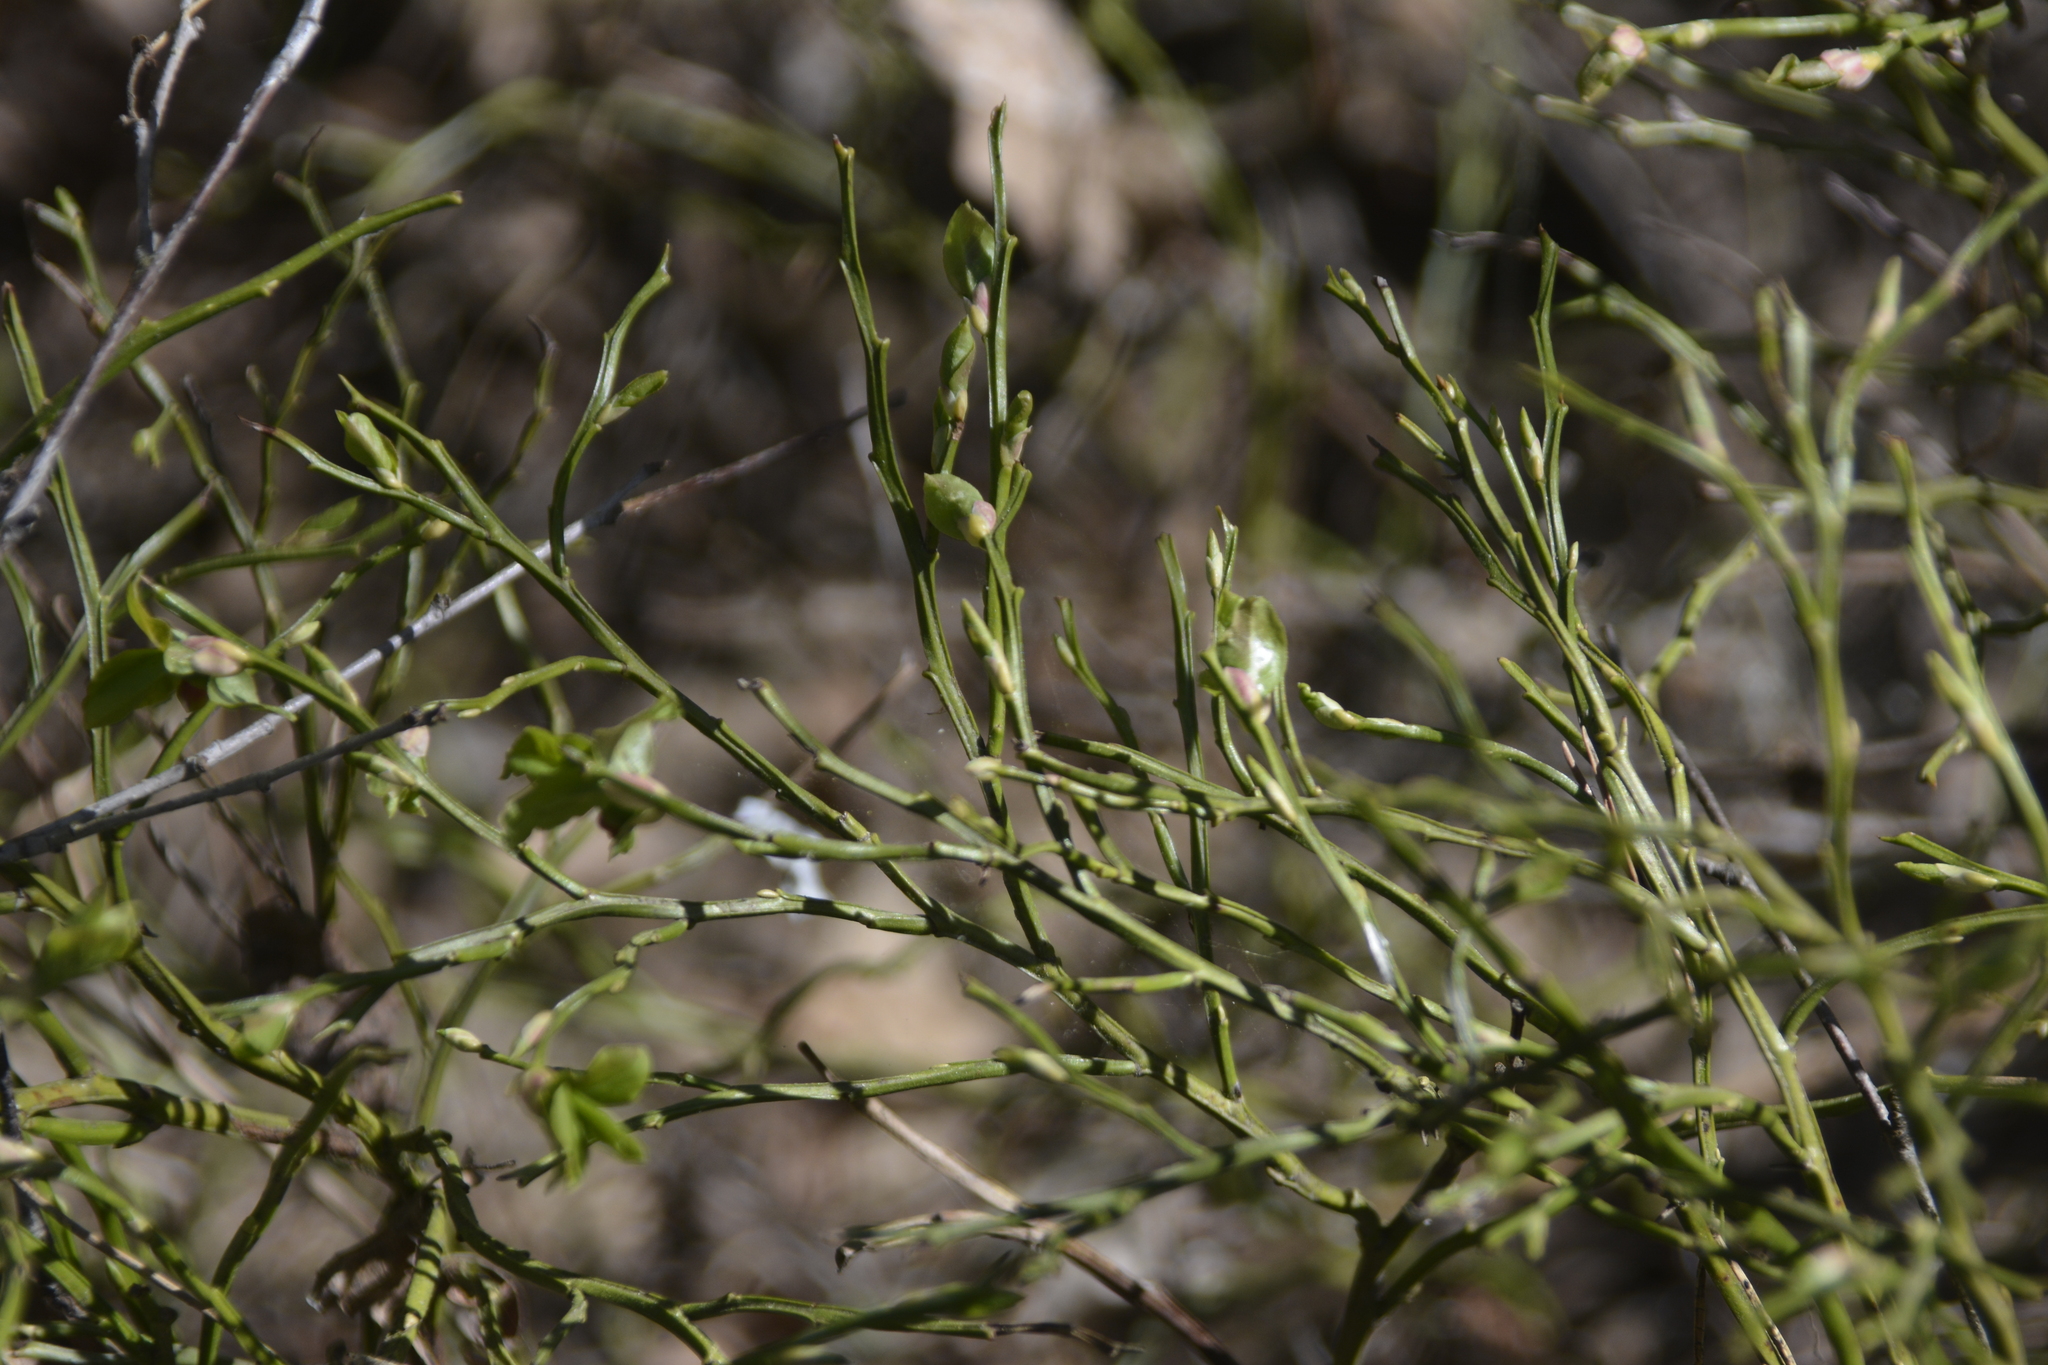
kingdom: Plantae
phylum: Tracheophyta
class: Magnoliopsida
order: Ericales
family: Ericaceae
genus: Vaccinium
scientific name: Vaccinium myrtillus
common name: Bilberry
